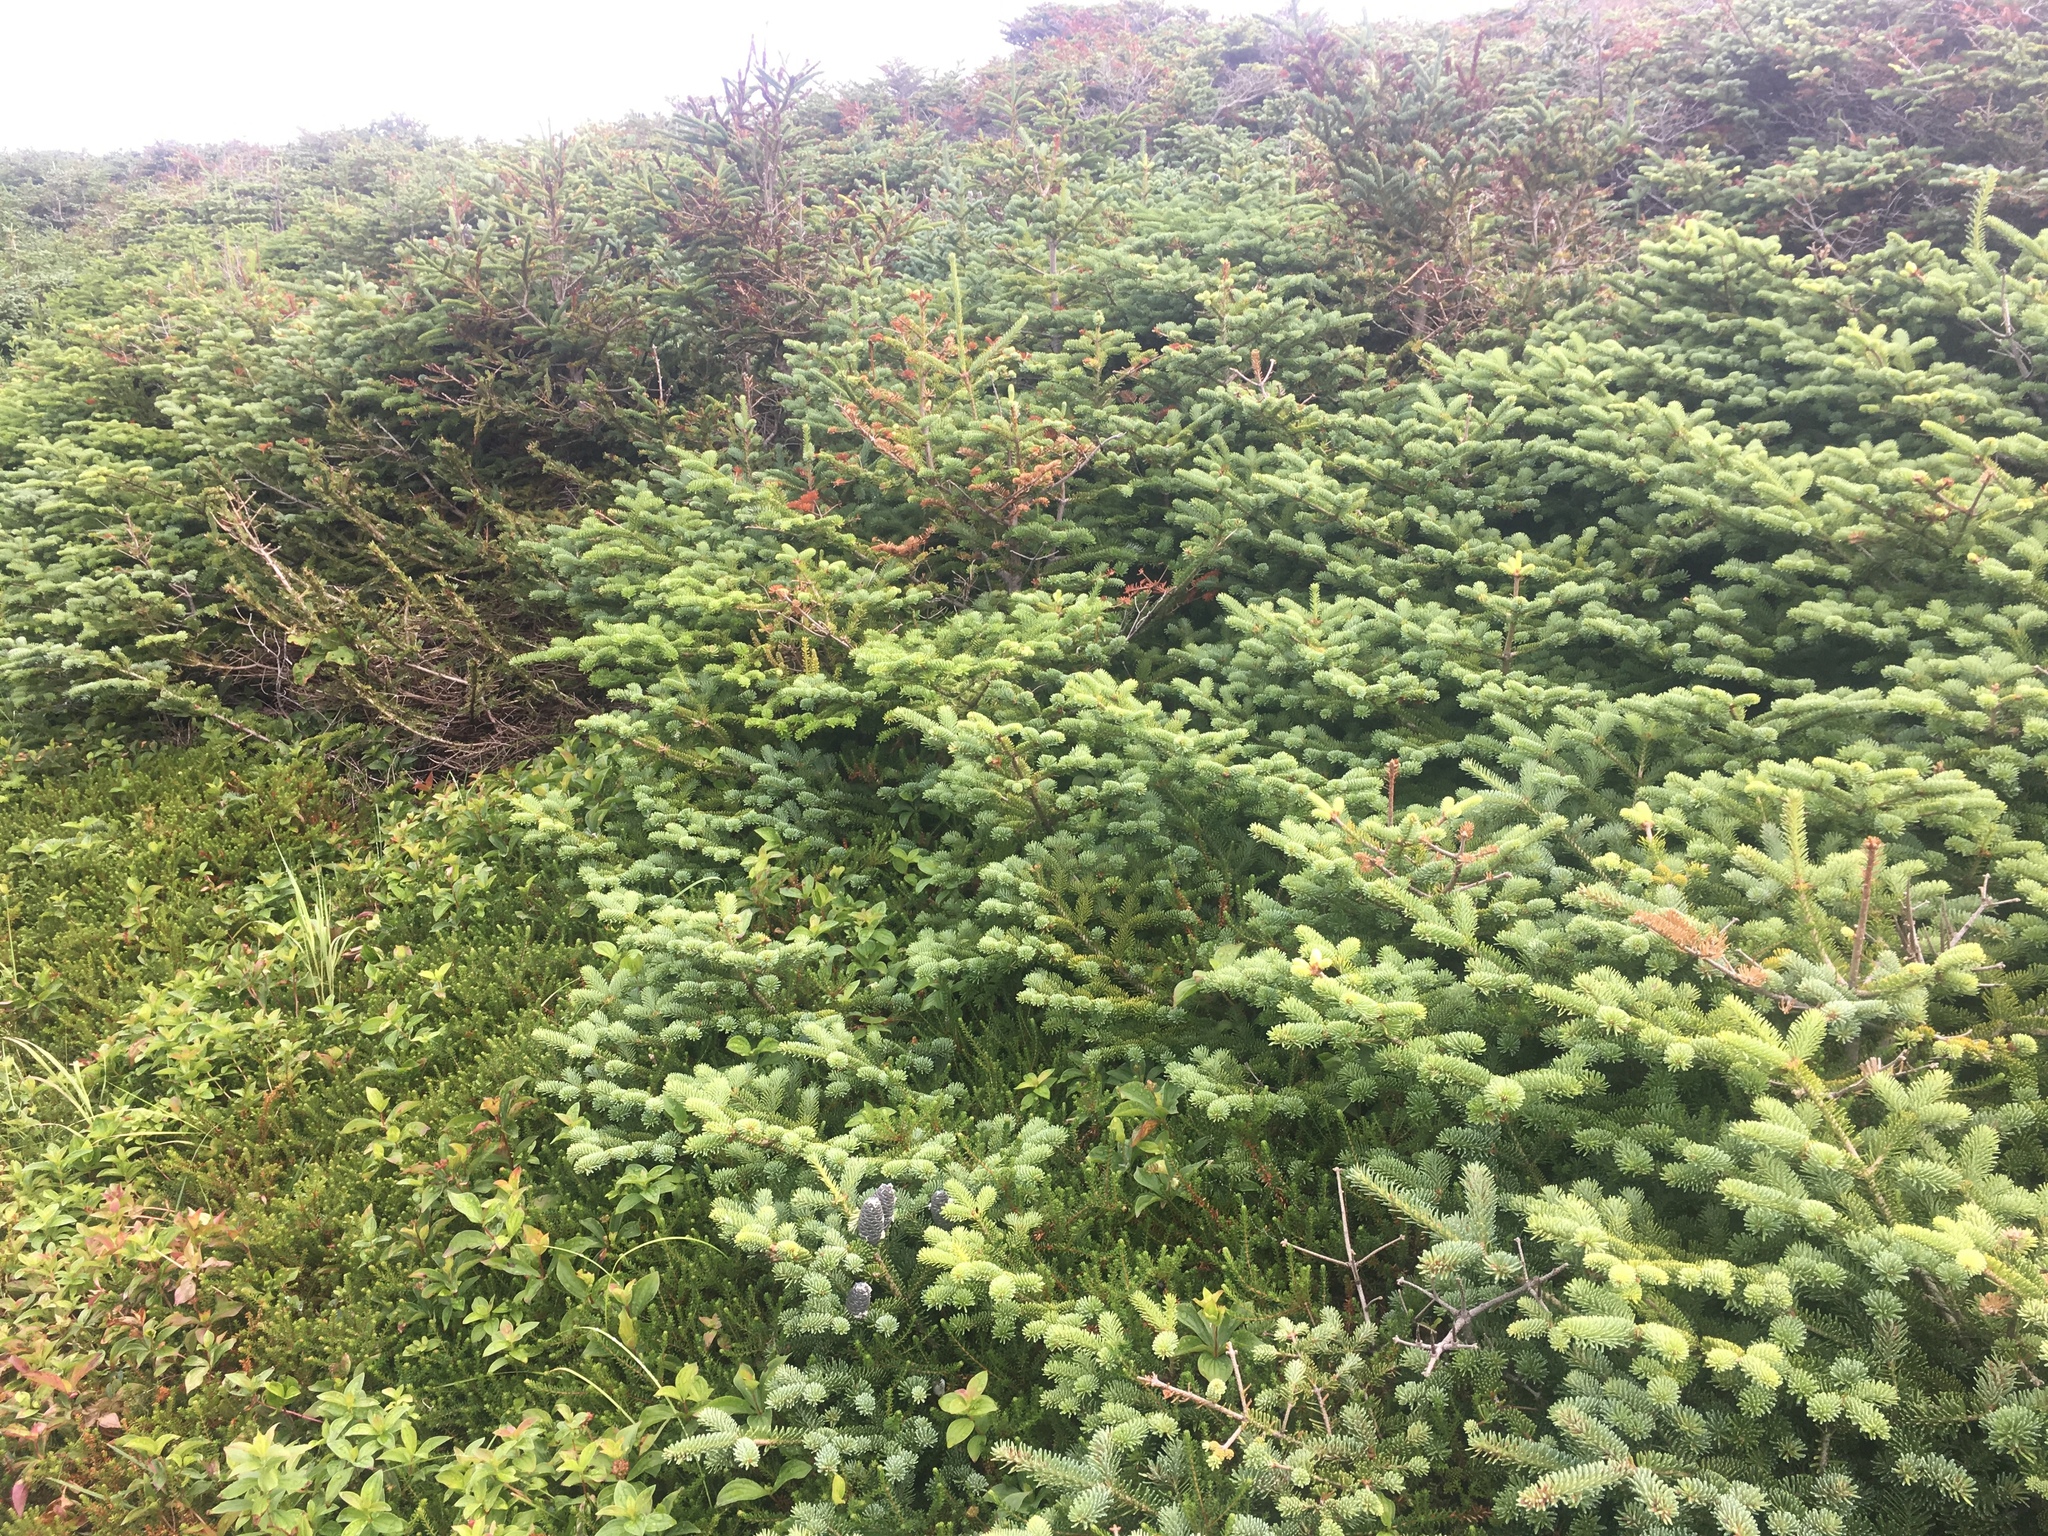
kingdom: Plantae
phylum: Tracheophyta
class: Pinopsida
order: Pinales
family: Pinaceae
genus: Abies
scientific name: Abies balsamea
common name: Balsam fir
